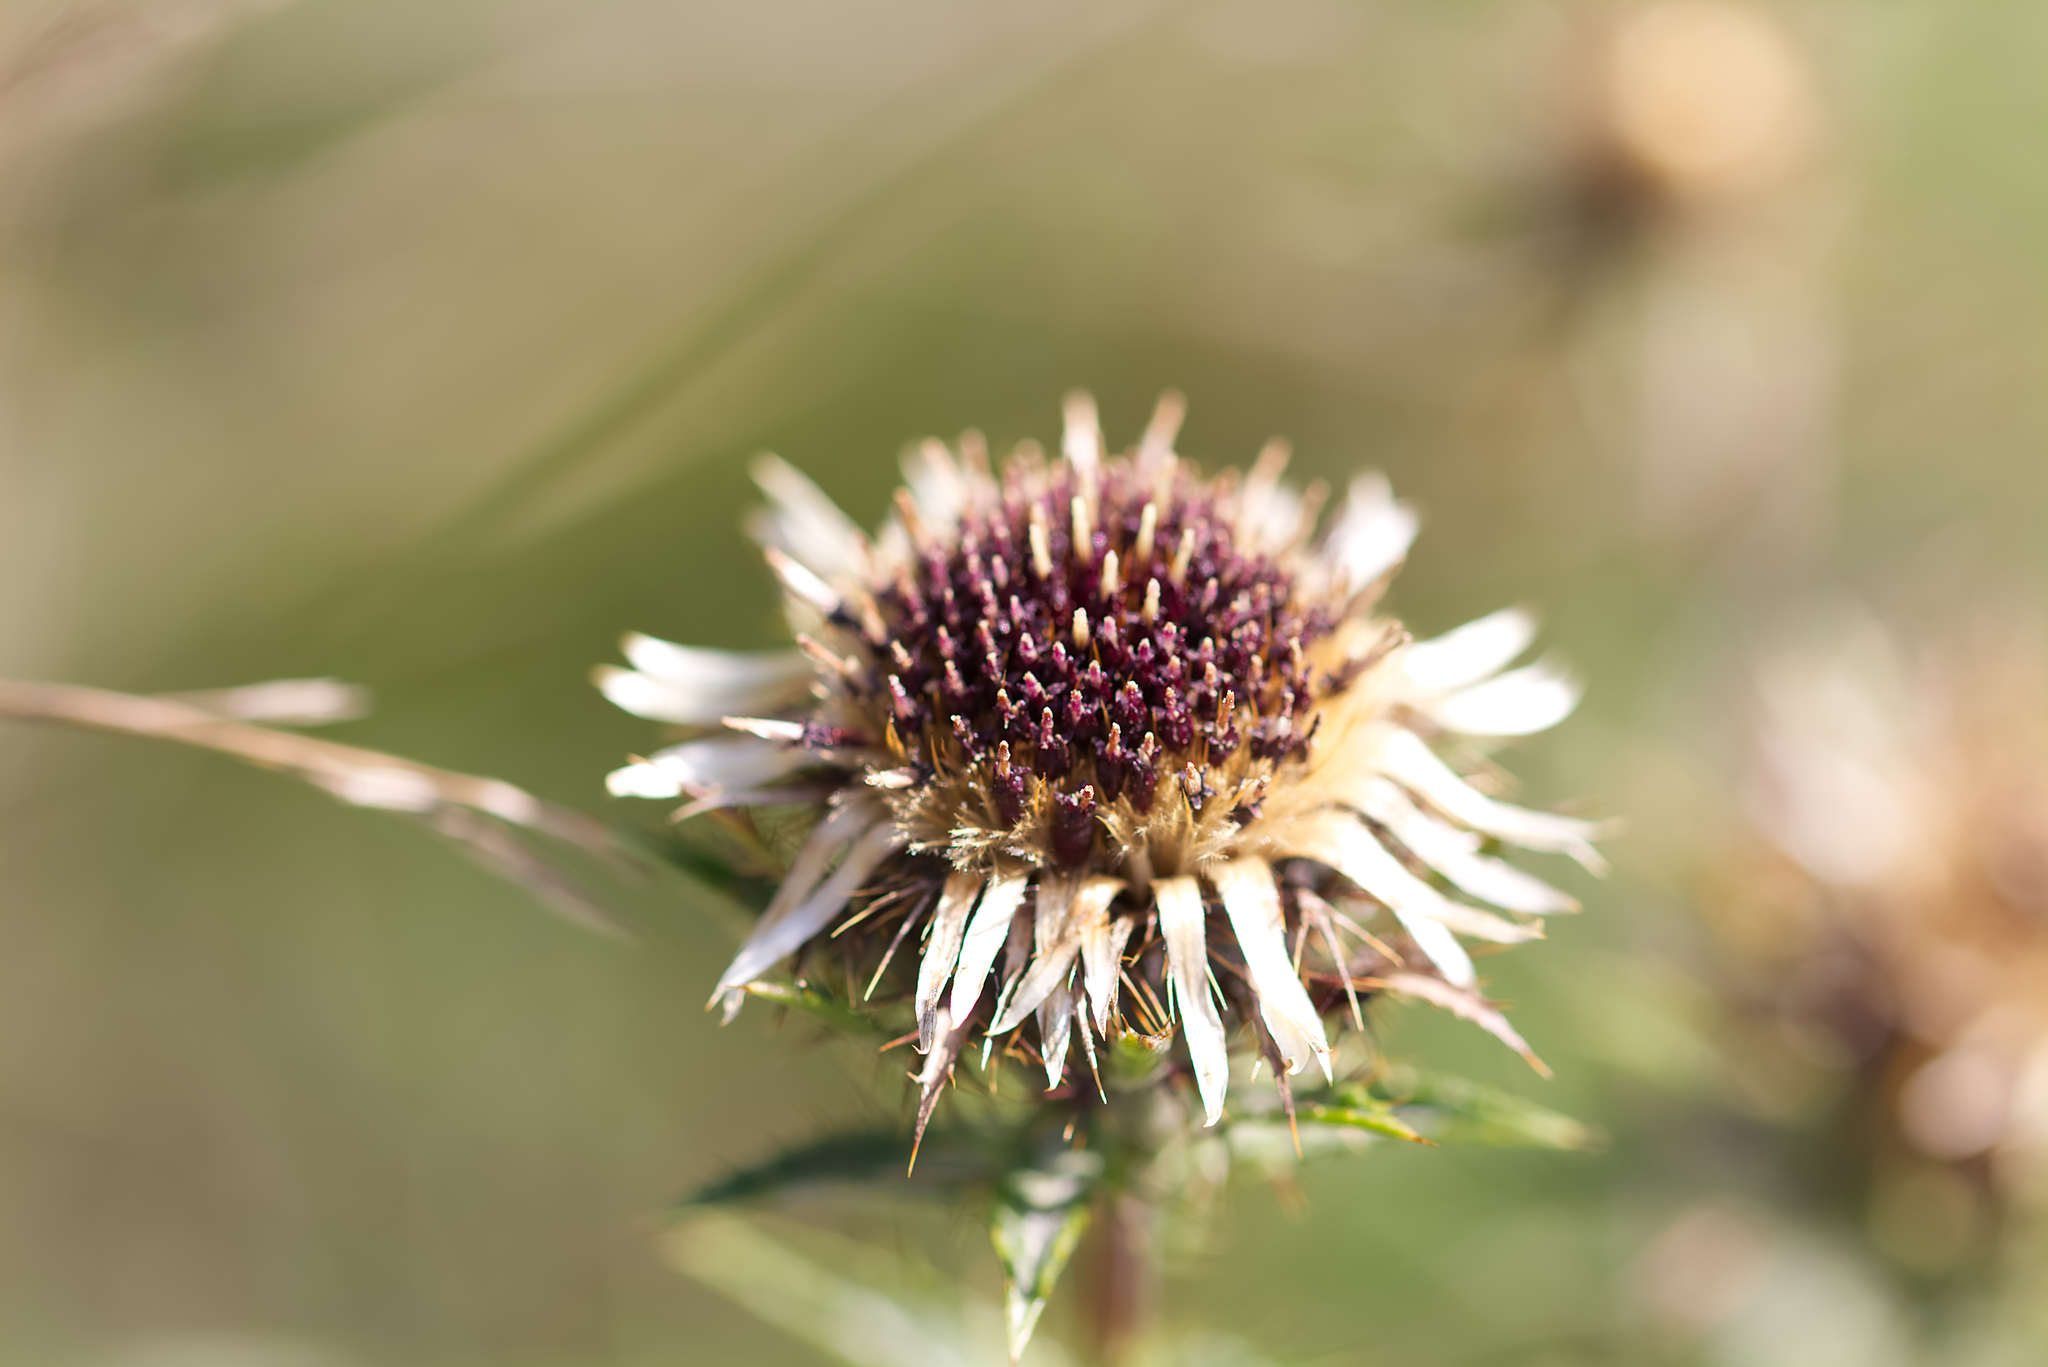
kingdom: Plantae
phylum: Tracheophyta
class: Magnoliopsida
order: Asterales
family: Asteraceae
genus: Carlina
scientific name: Carlina vulgaris
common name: Carline thistle
